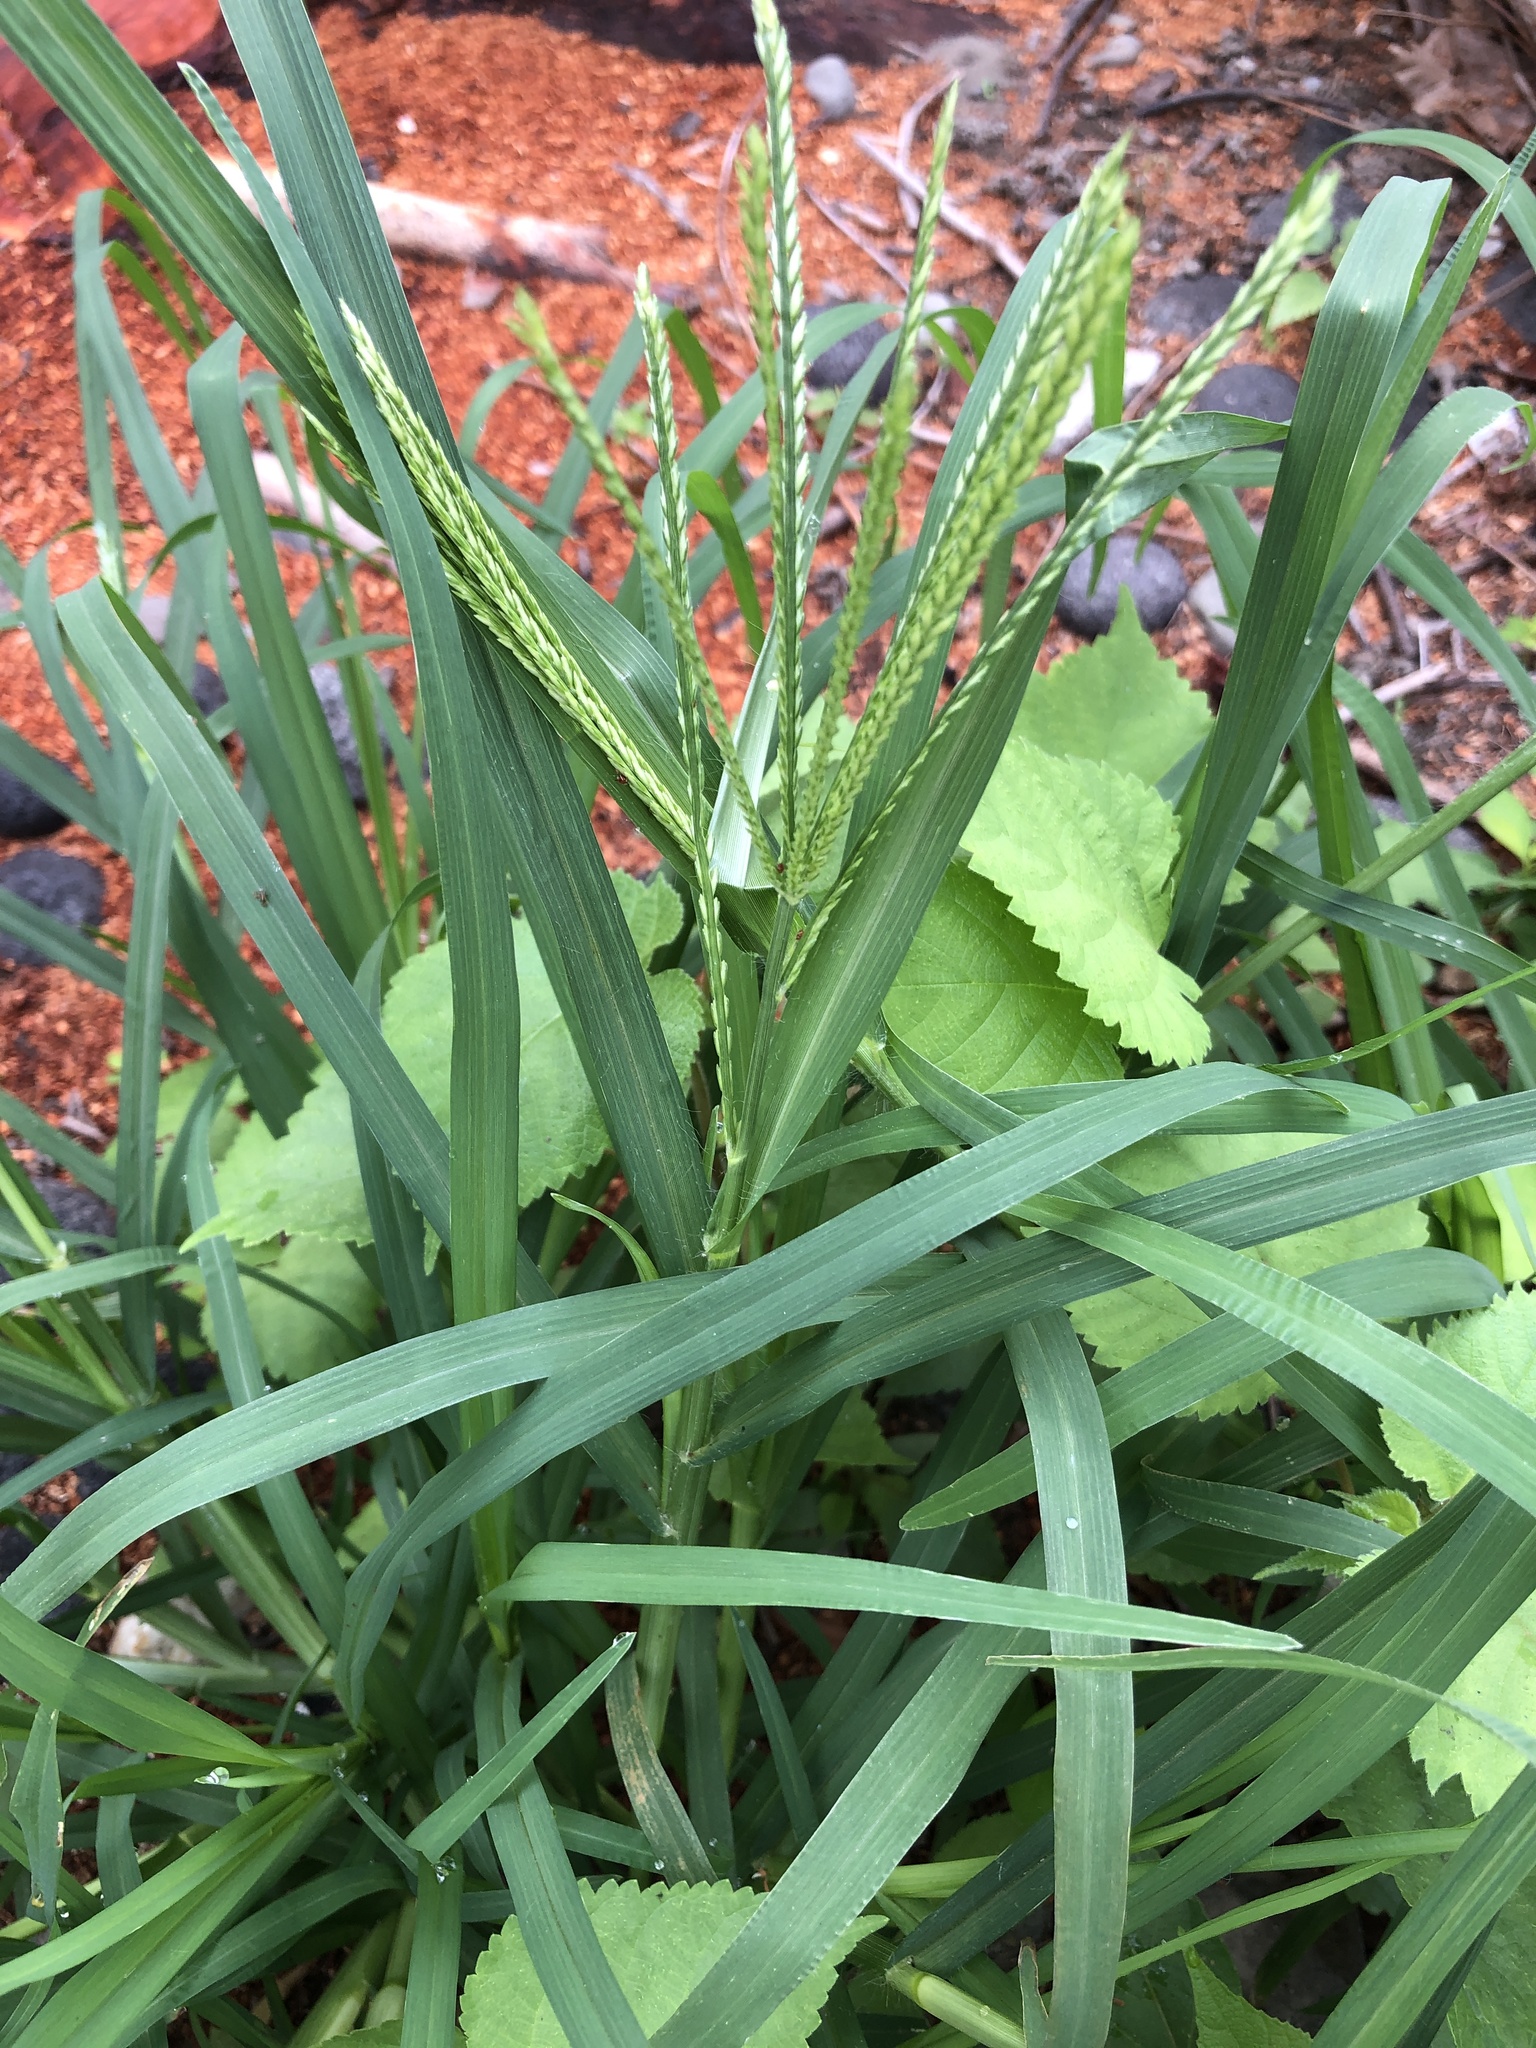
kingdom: Plantae
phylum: Tracheophyta
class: Liliopsida
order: Poales
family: Poaceae
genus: Eleusine
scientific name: Eleusine indica
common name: Yard-grass
